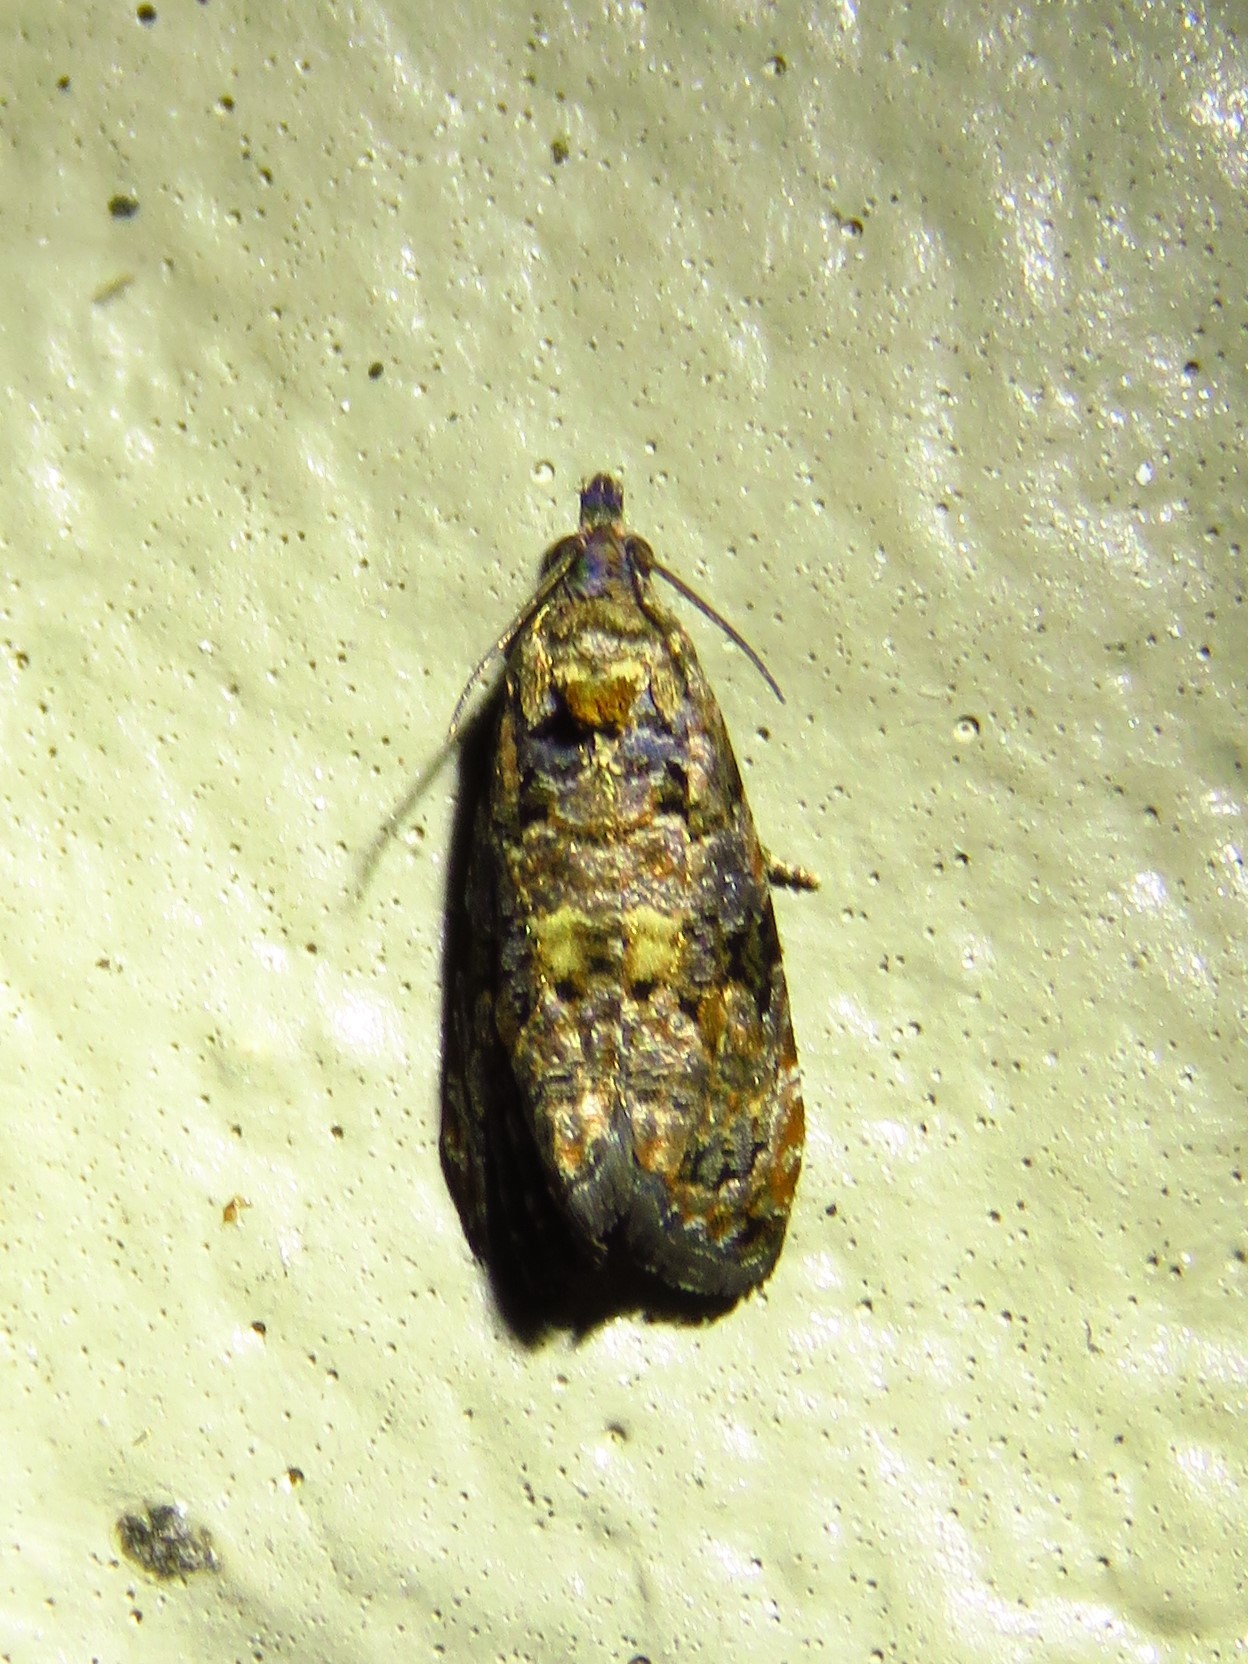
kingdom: Animalia
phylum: Arthropoda
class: Insecta
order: Lepidoptera
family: Tortricidae
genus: Endothenia
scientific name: Endothenia hebesana
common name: Verbena bud moth
